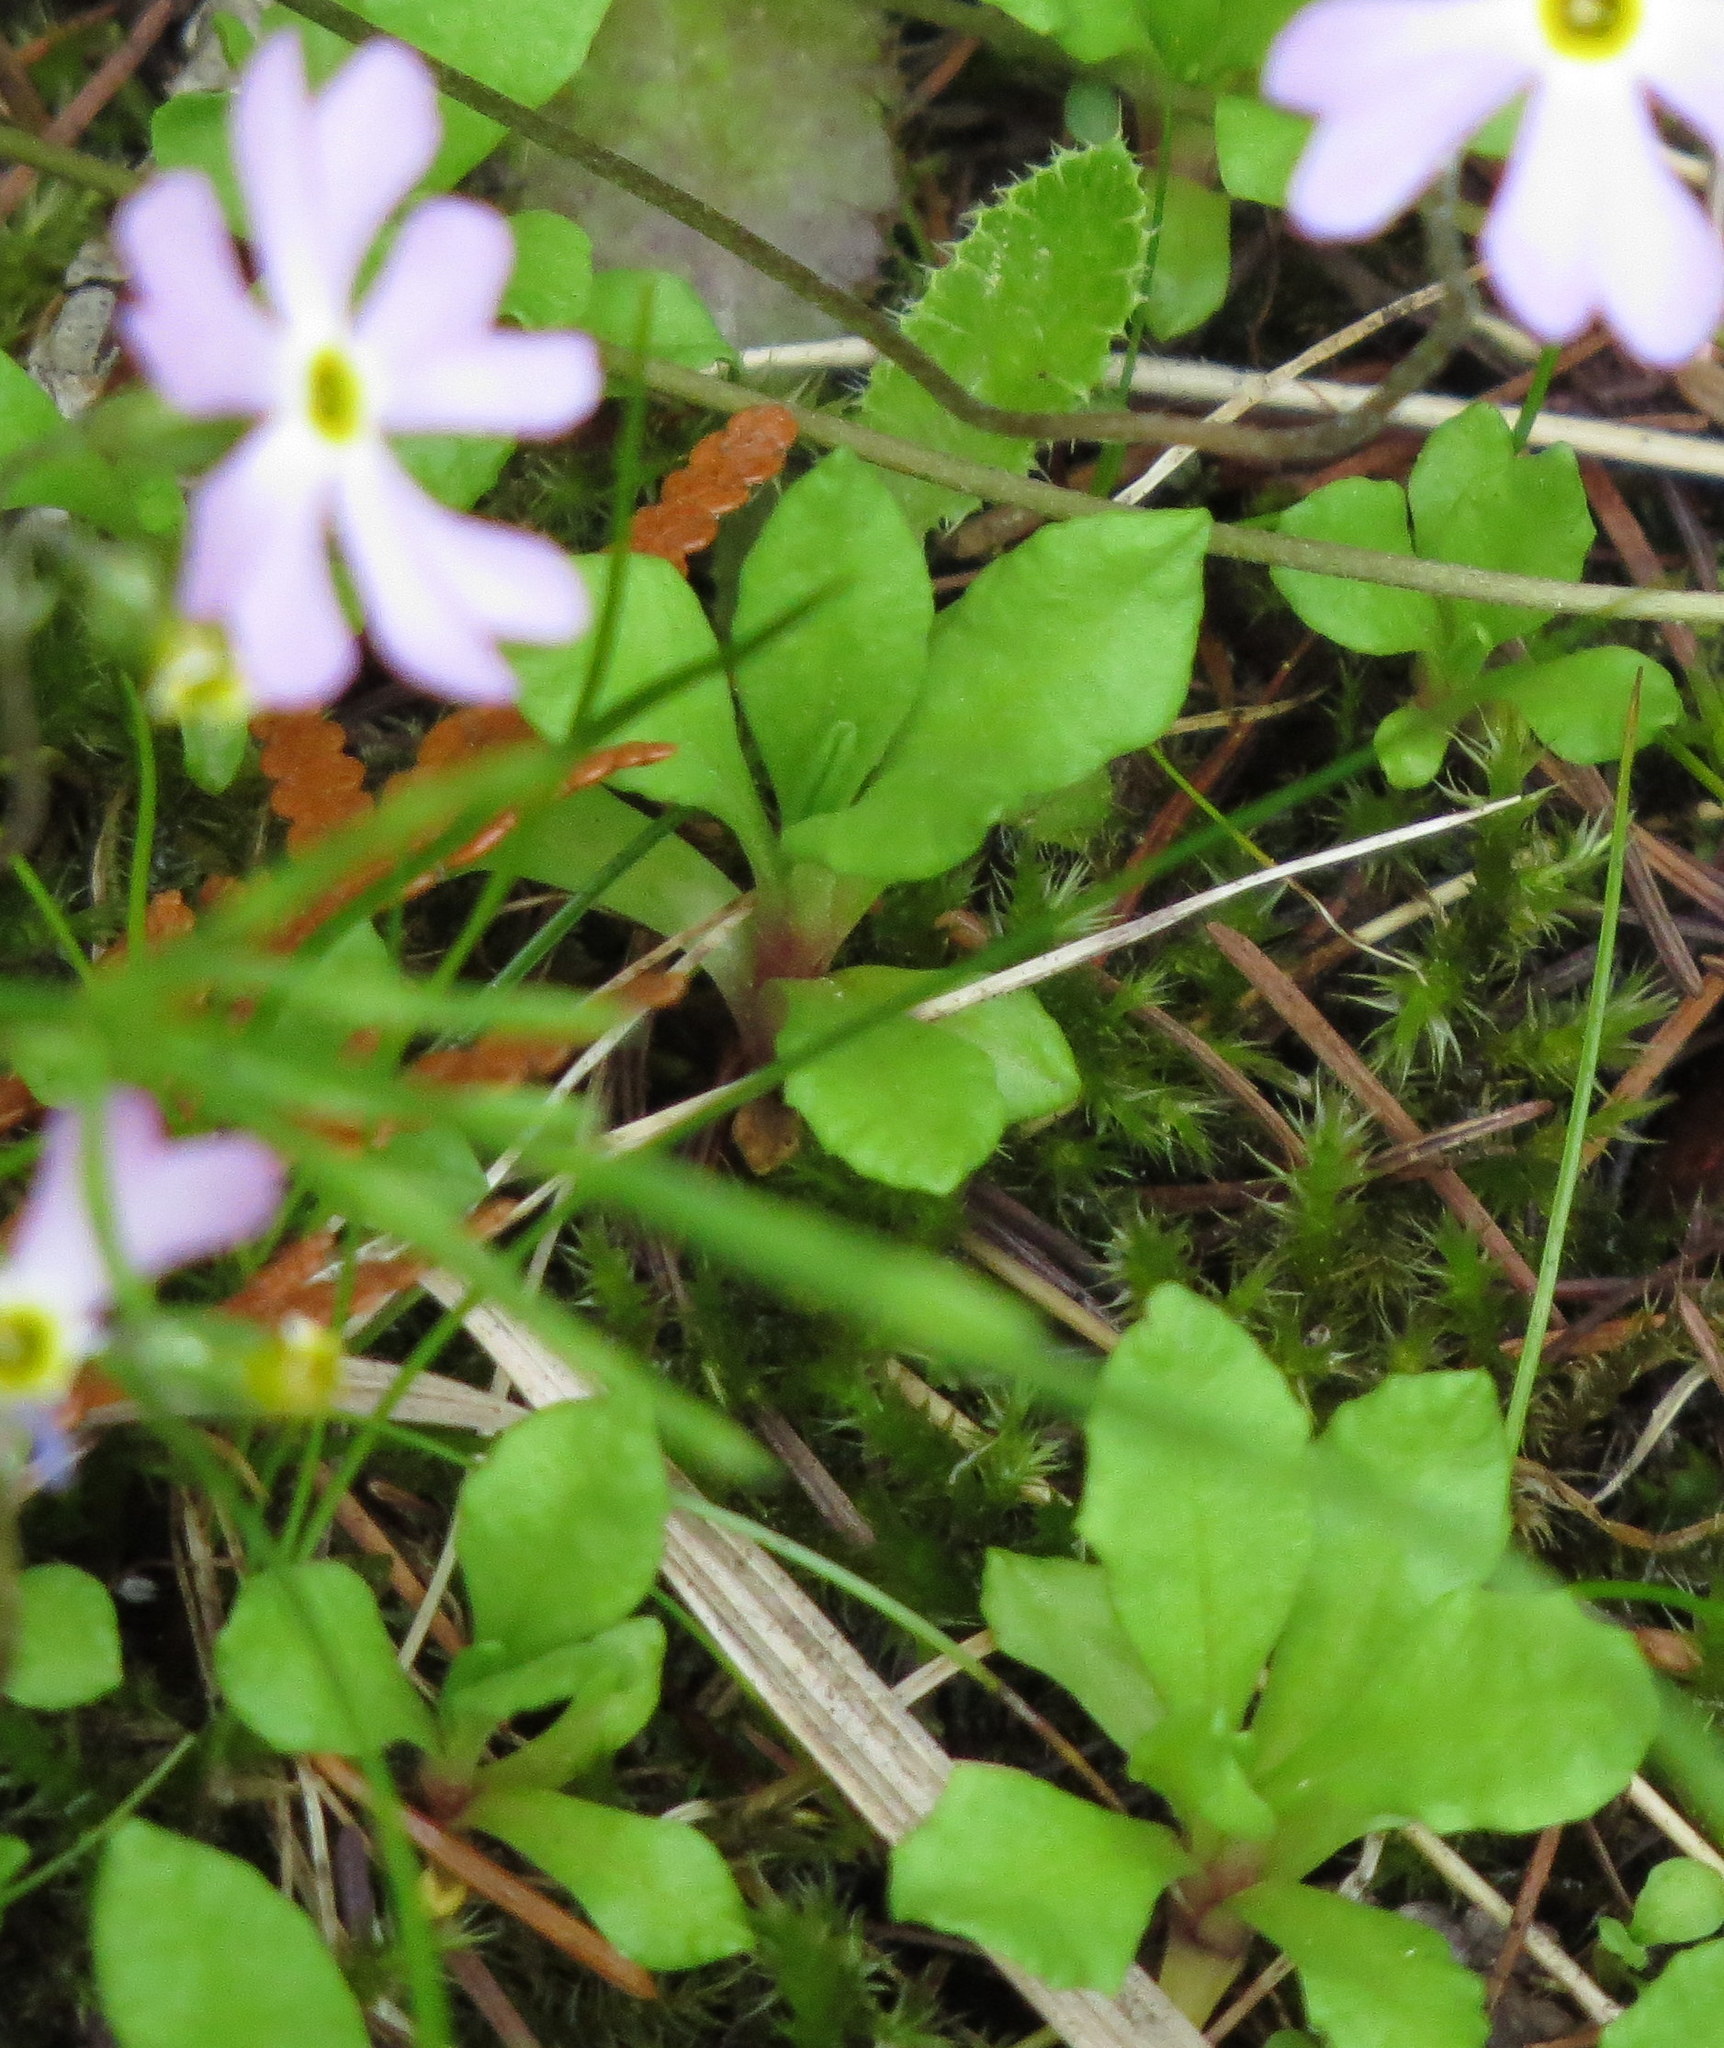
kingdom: Plantae
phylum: Tracheophyta
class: Magnoliopsida
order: Ericales
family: Primulaceae
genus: Primula
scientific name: Primula mistassinica
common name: Bird's-eye primrose
